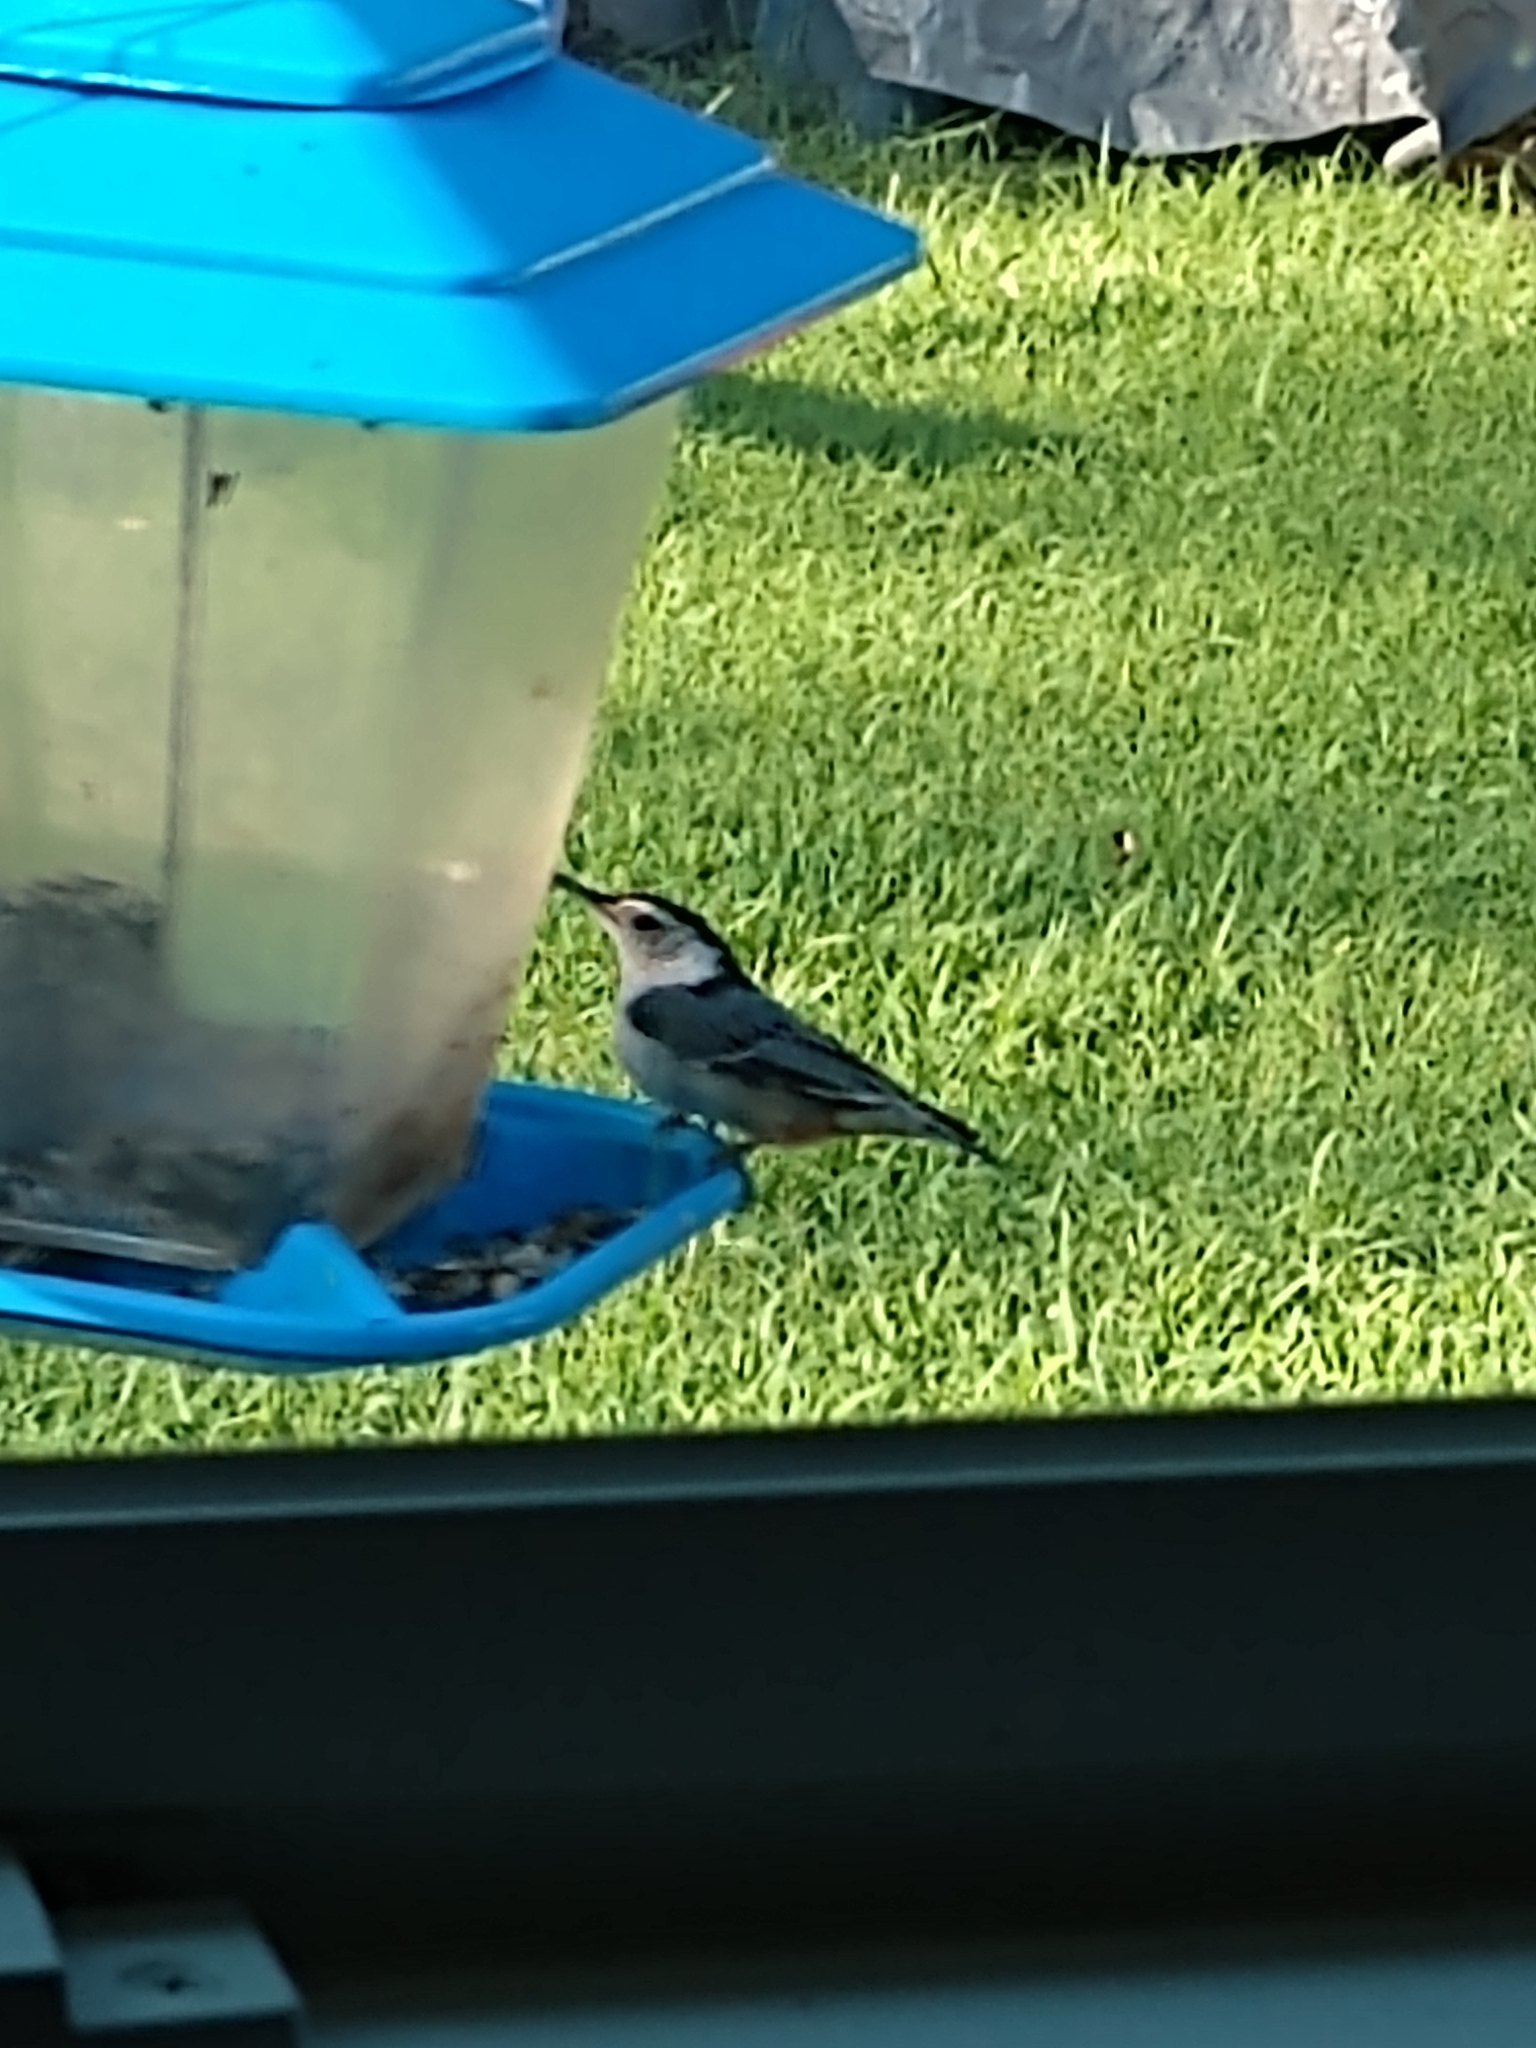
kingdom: Animalia
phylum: Chordata
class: Aves
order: Passeriformes
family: Sittidae
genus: Sitta
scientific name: Sitta carolinensis
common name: White-breasted nuthatch
